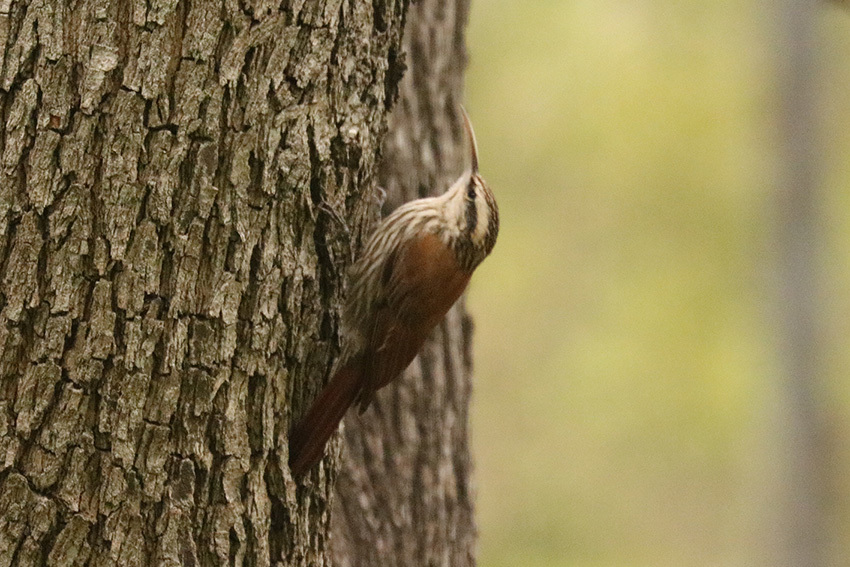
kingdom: Animalia
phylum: Chordata
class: Aves
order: Passeriformes
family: Furnariidae
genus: Lepidocolaptes
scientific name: Lepidocolaptes angustirostris
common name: Narrow-billed woodcreeper
